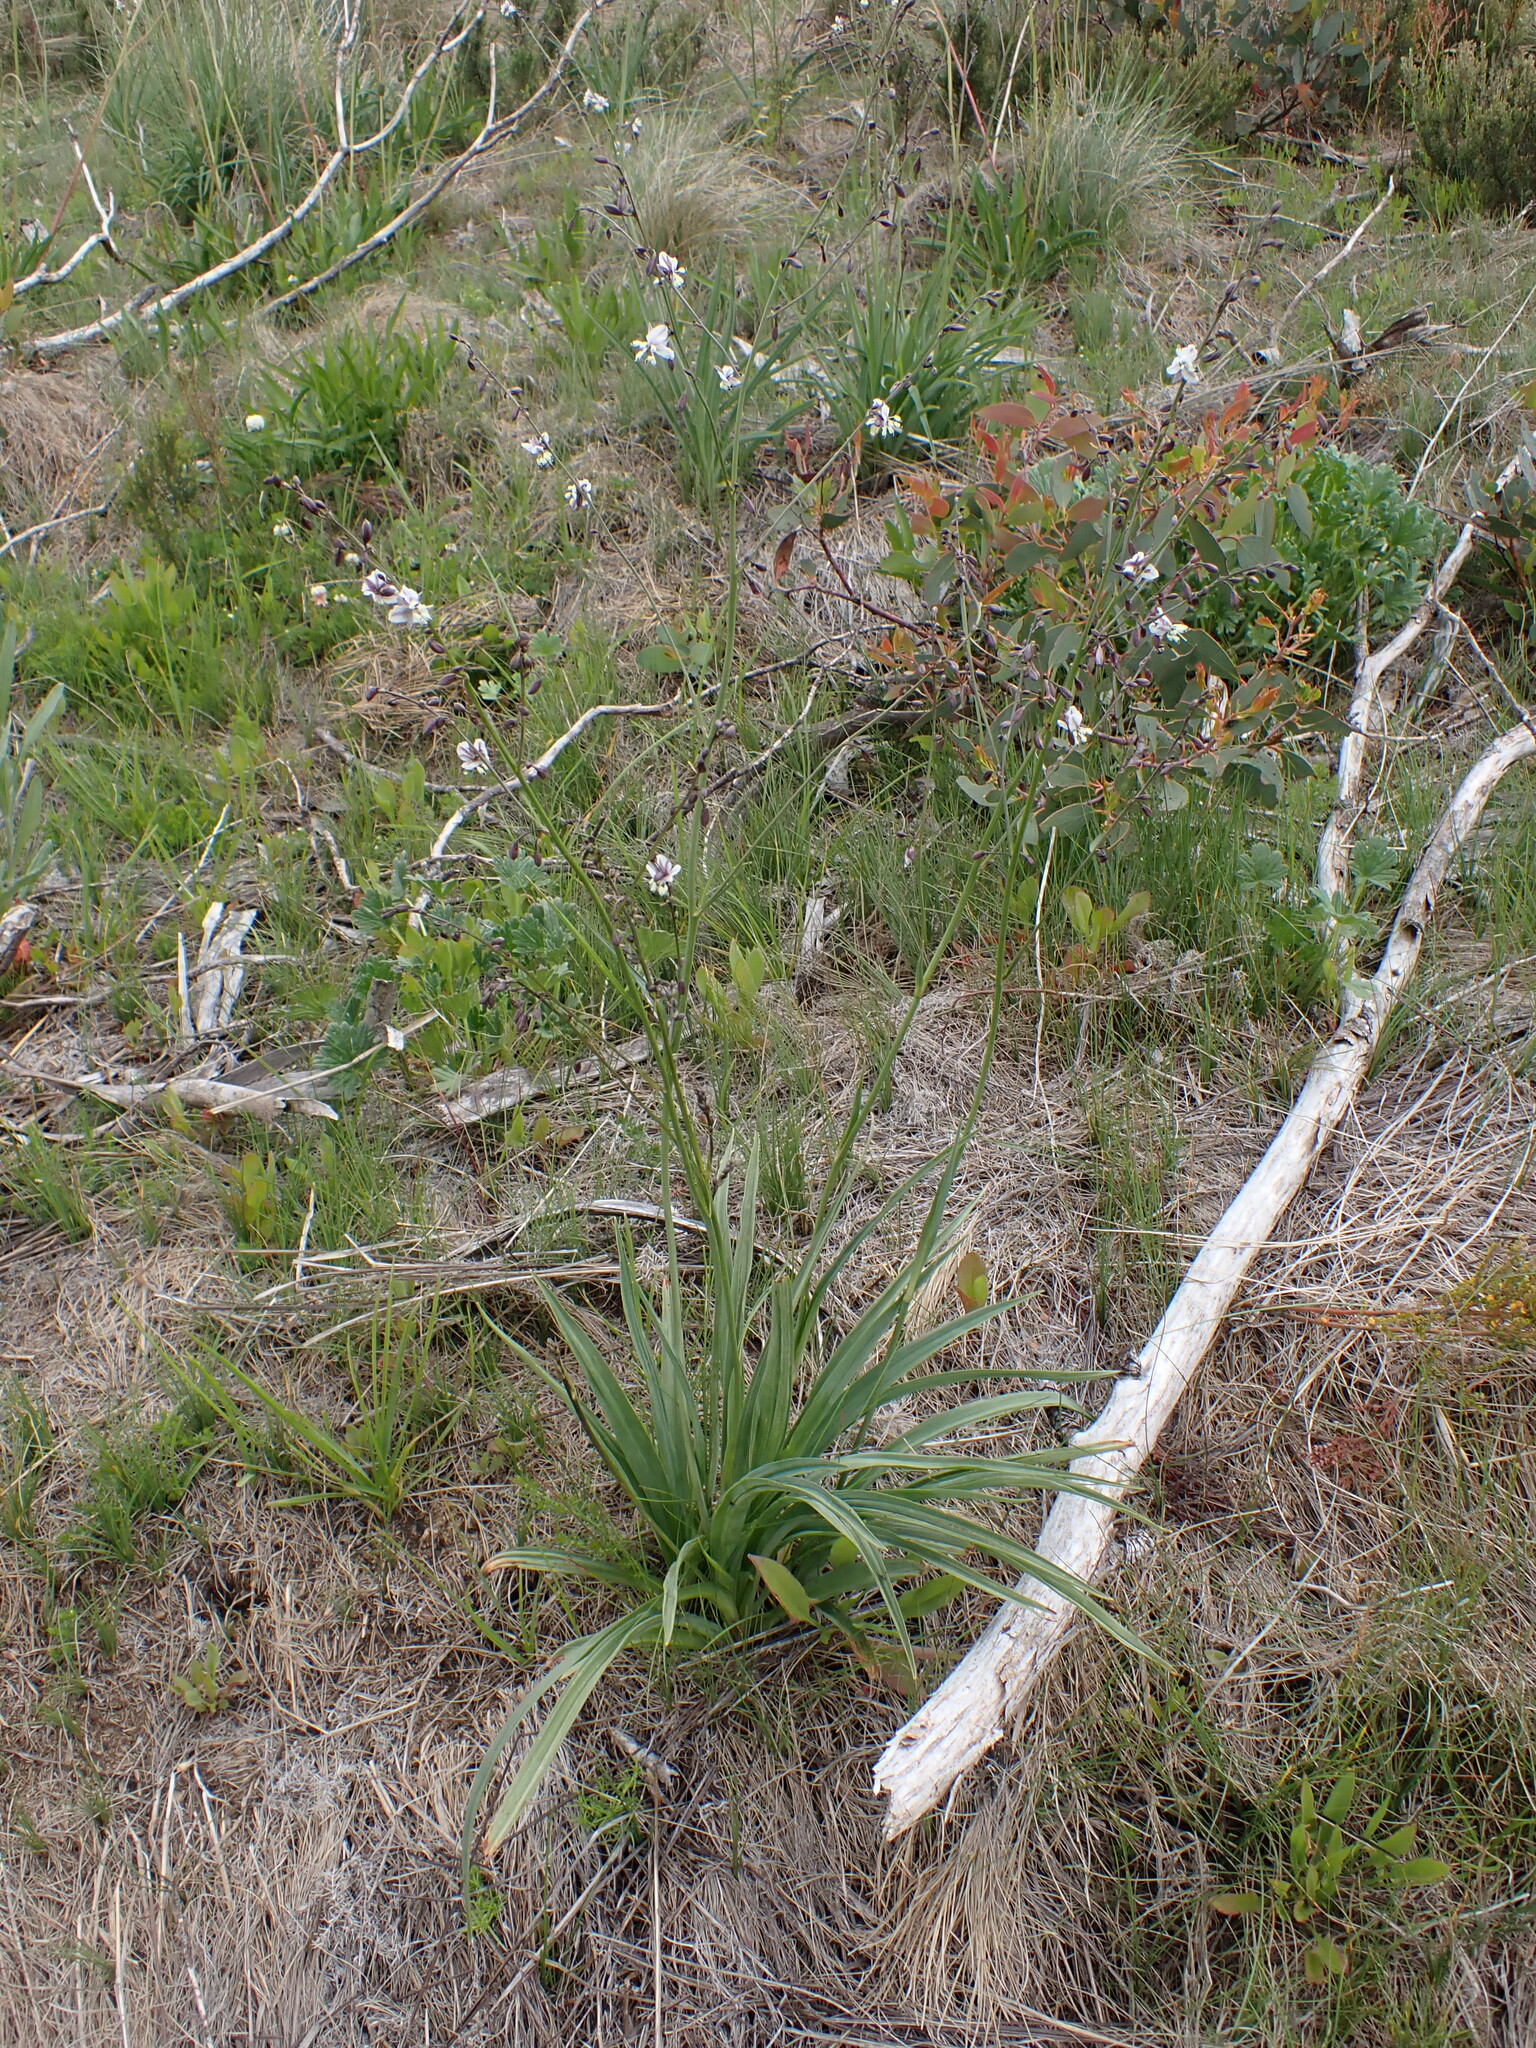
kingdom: Plantae
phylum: Tracheophyta
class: Liliopsida
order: Asparagales
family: Asparagaceae
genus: Arthropodium
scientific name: Arthropodium milleflorum
